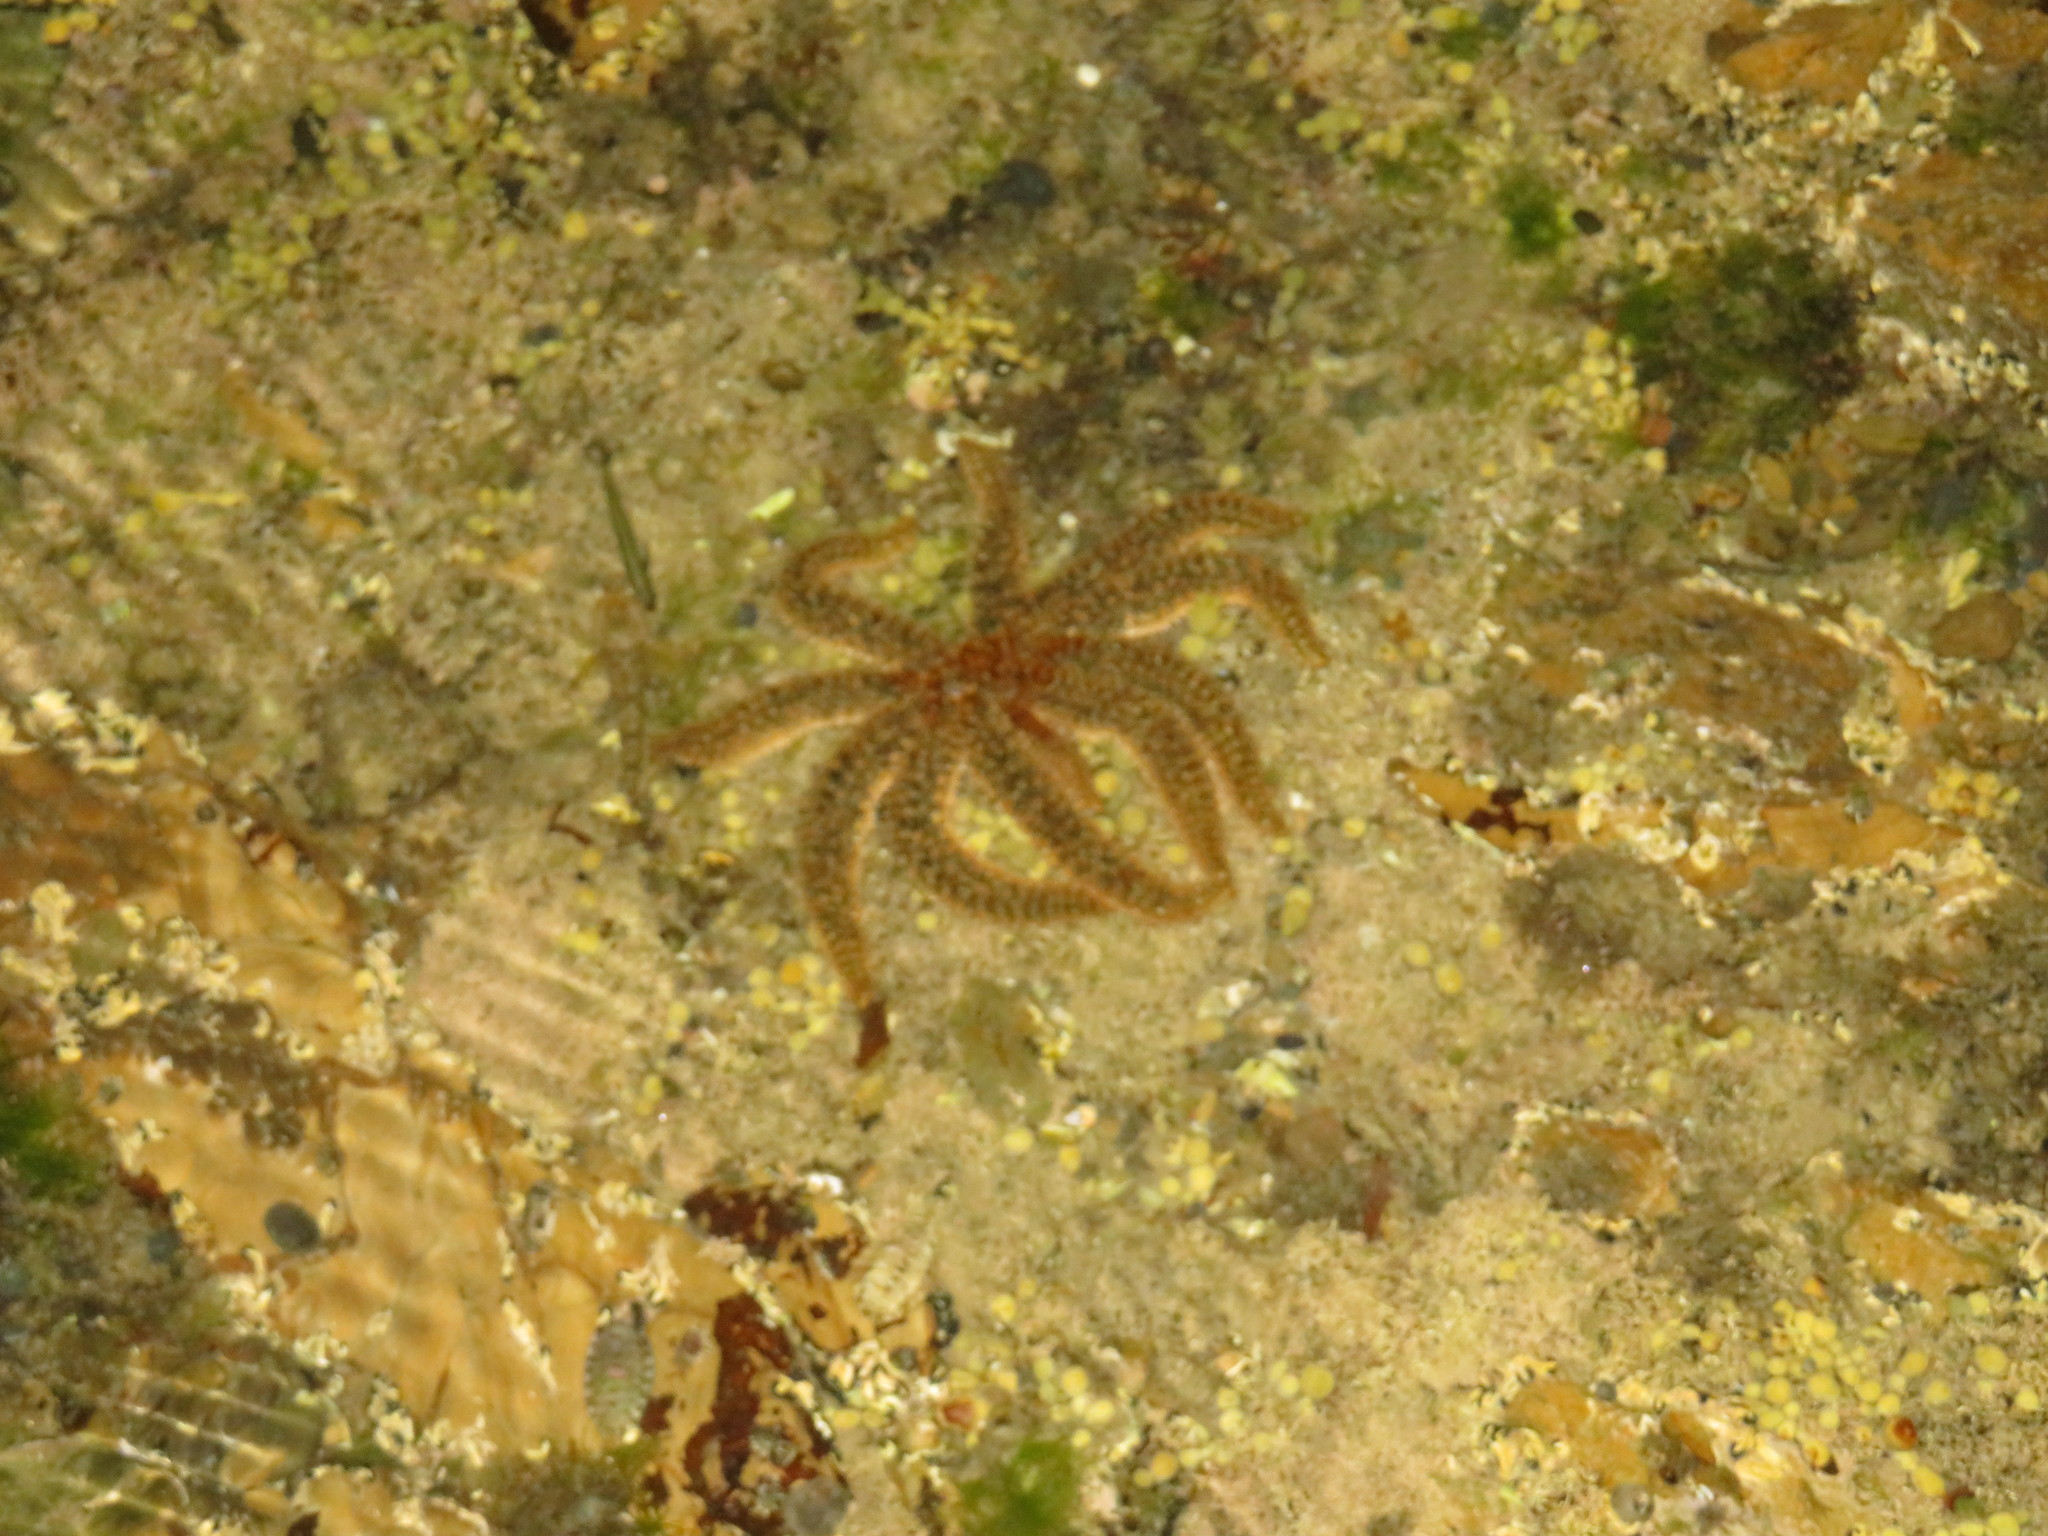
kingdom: Animalia
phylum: Echinodermata
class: Asteroidea
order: Forcipulatida
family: Asteriidae
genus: Coscinasterias
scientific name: Coscinasterias muricata
